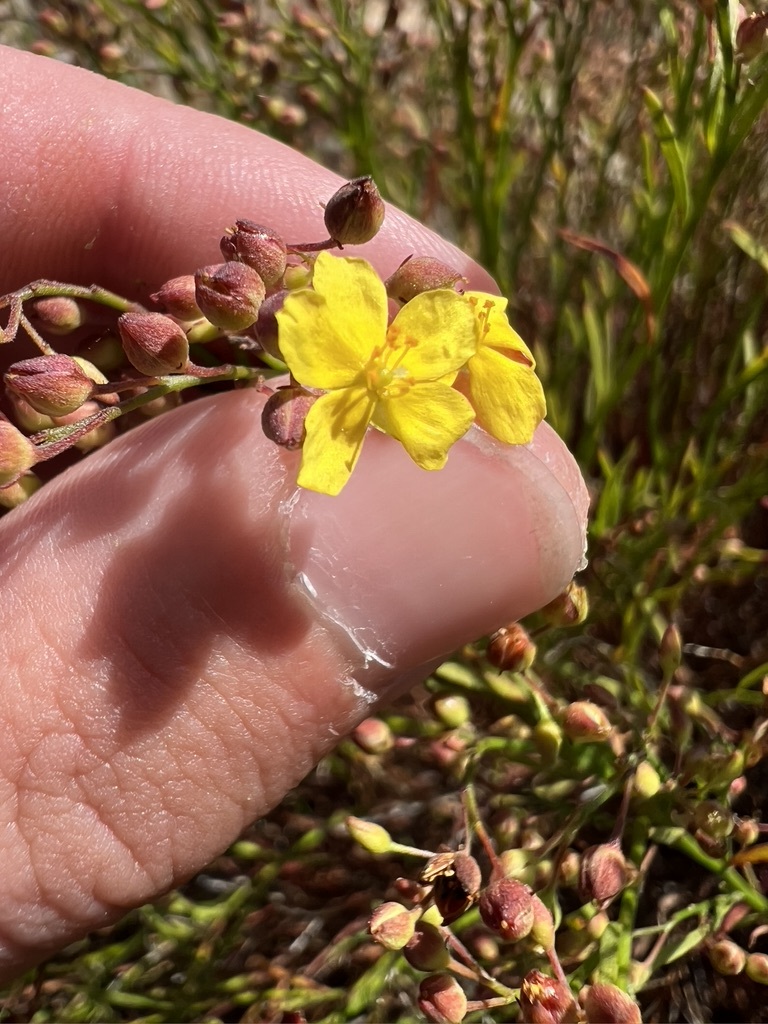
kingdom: Plantae
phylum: Tracheophyta
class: Magnoliopsida
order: Malvales
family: Cistaceae
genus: Crocanthemum
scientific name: Crocanthemum scoparium
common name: Broom-rose
